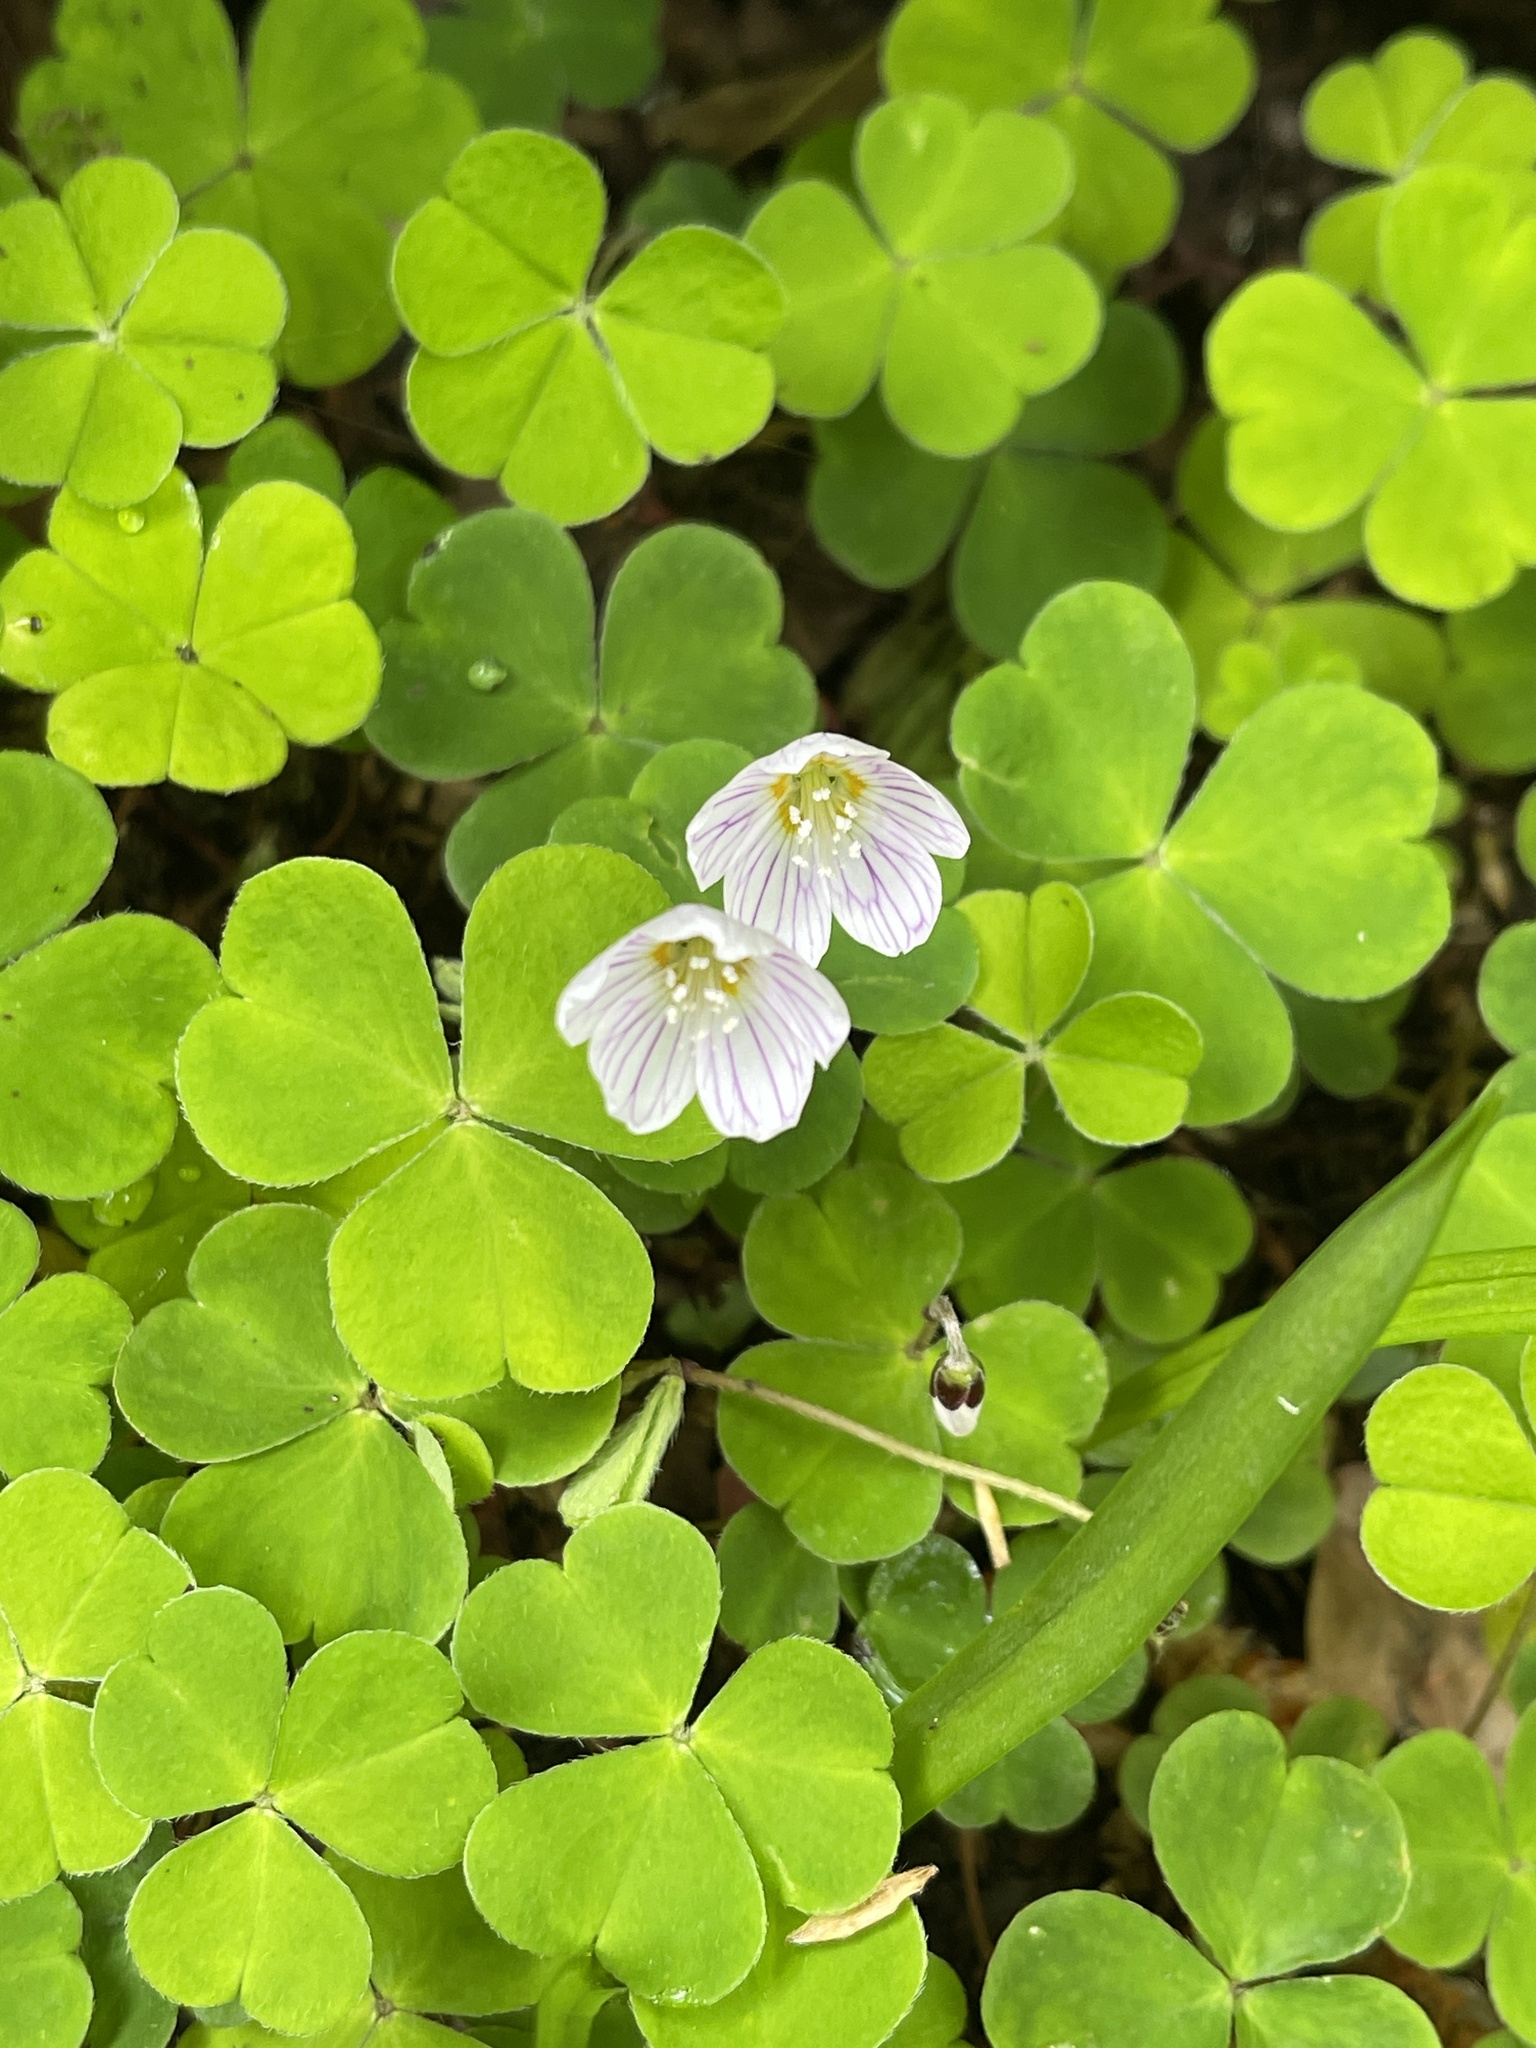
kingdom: Plantae
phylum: Tracheophyta
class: Magnoliopsida
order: Oxalidales
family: Oxalidaceae
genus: Oxalis
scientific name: Oxalis acetosella
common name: Wood-sorrel
